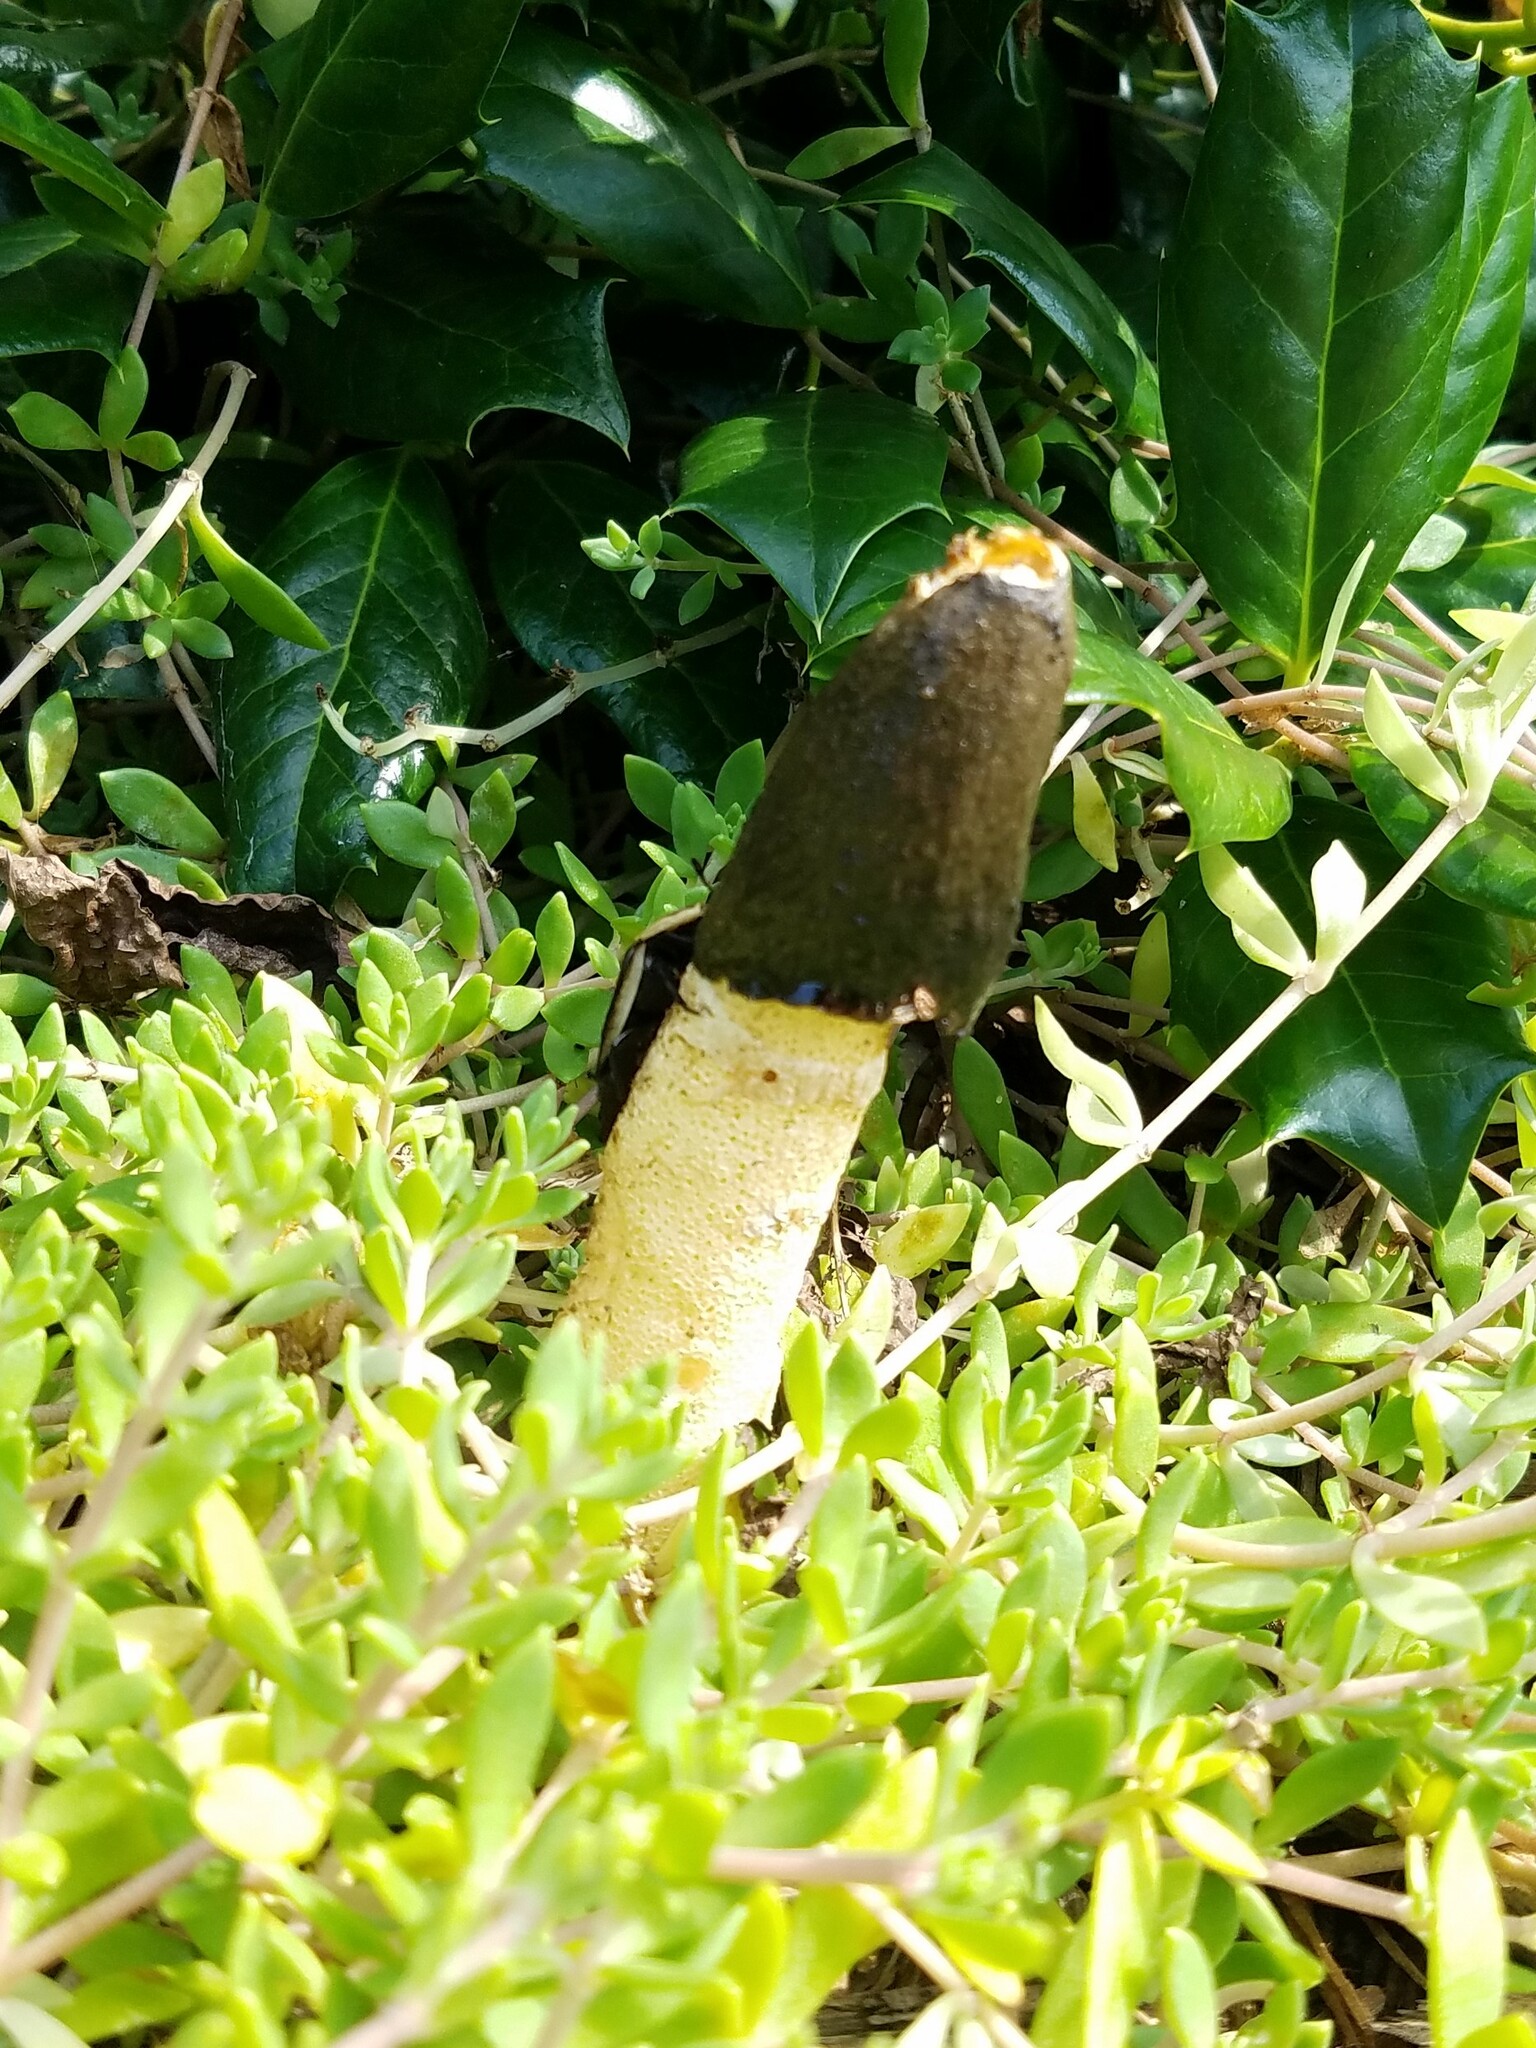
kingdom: Fungi
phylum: Basidiomycota
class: Agaricomycetes
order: Phallales
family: Phallaceae
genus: Phallus
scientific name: Phallus ravenelii
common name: Ravenel's stinkhorn
